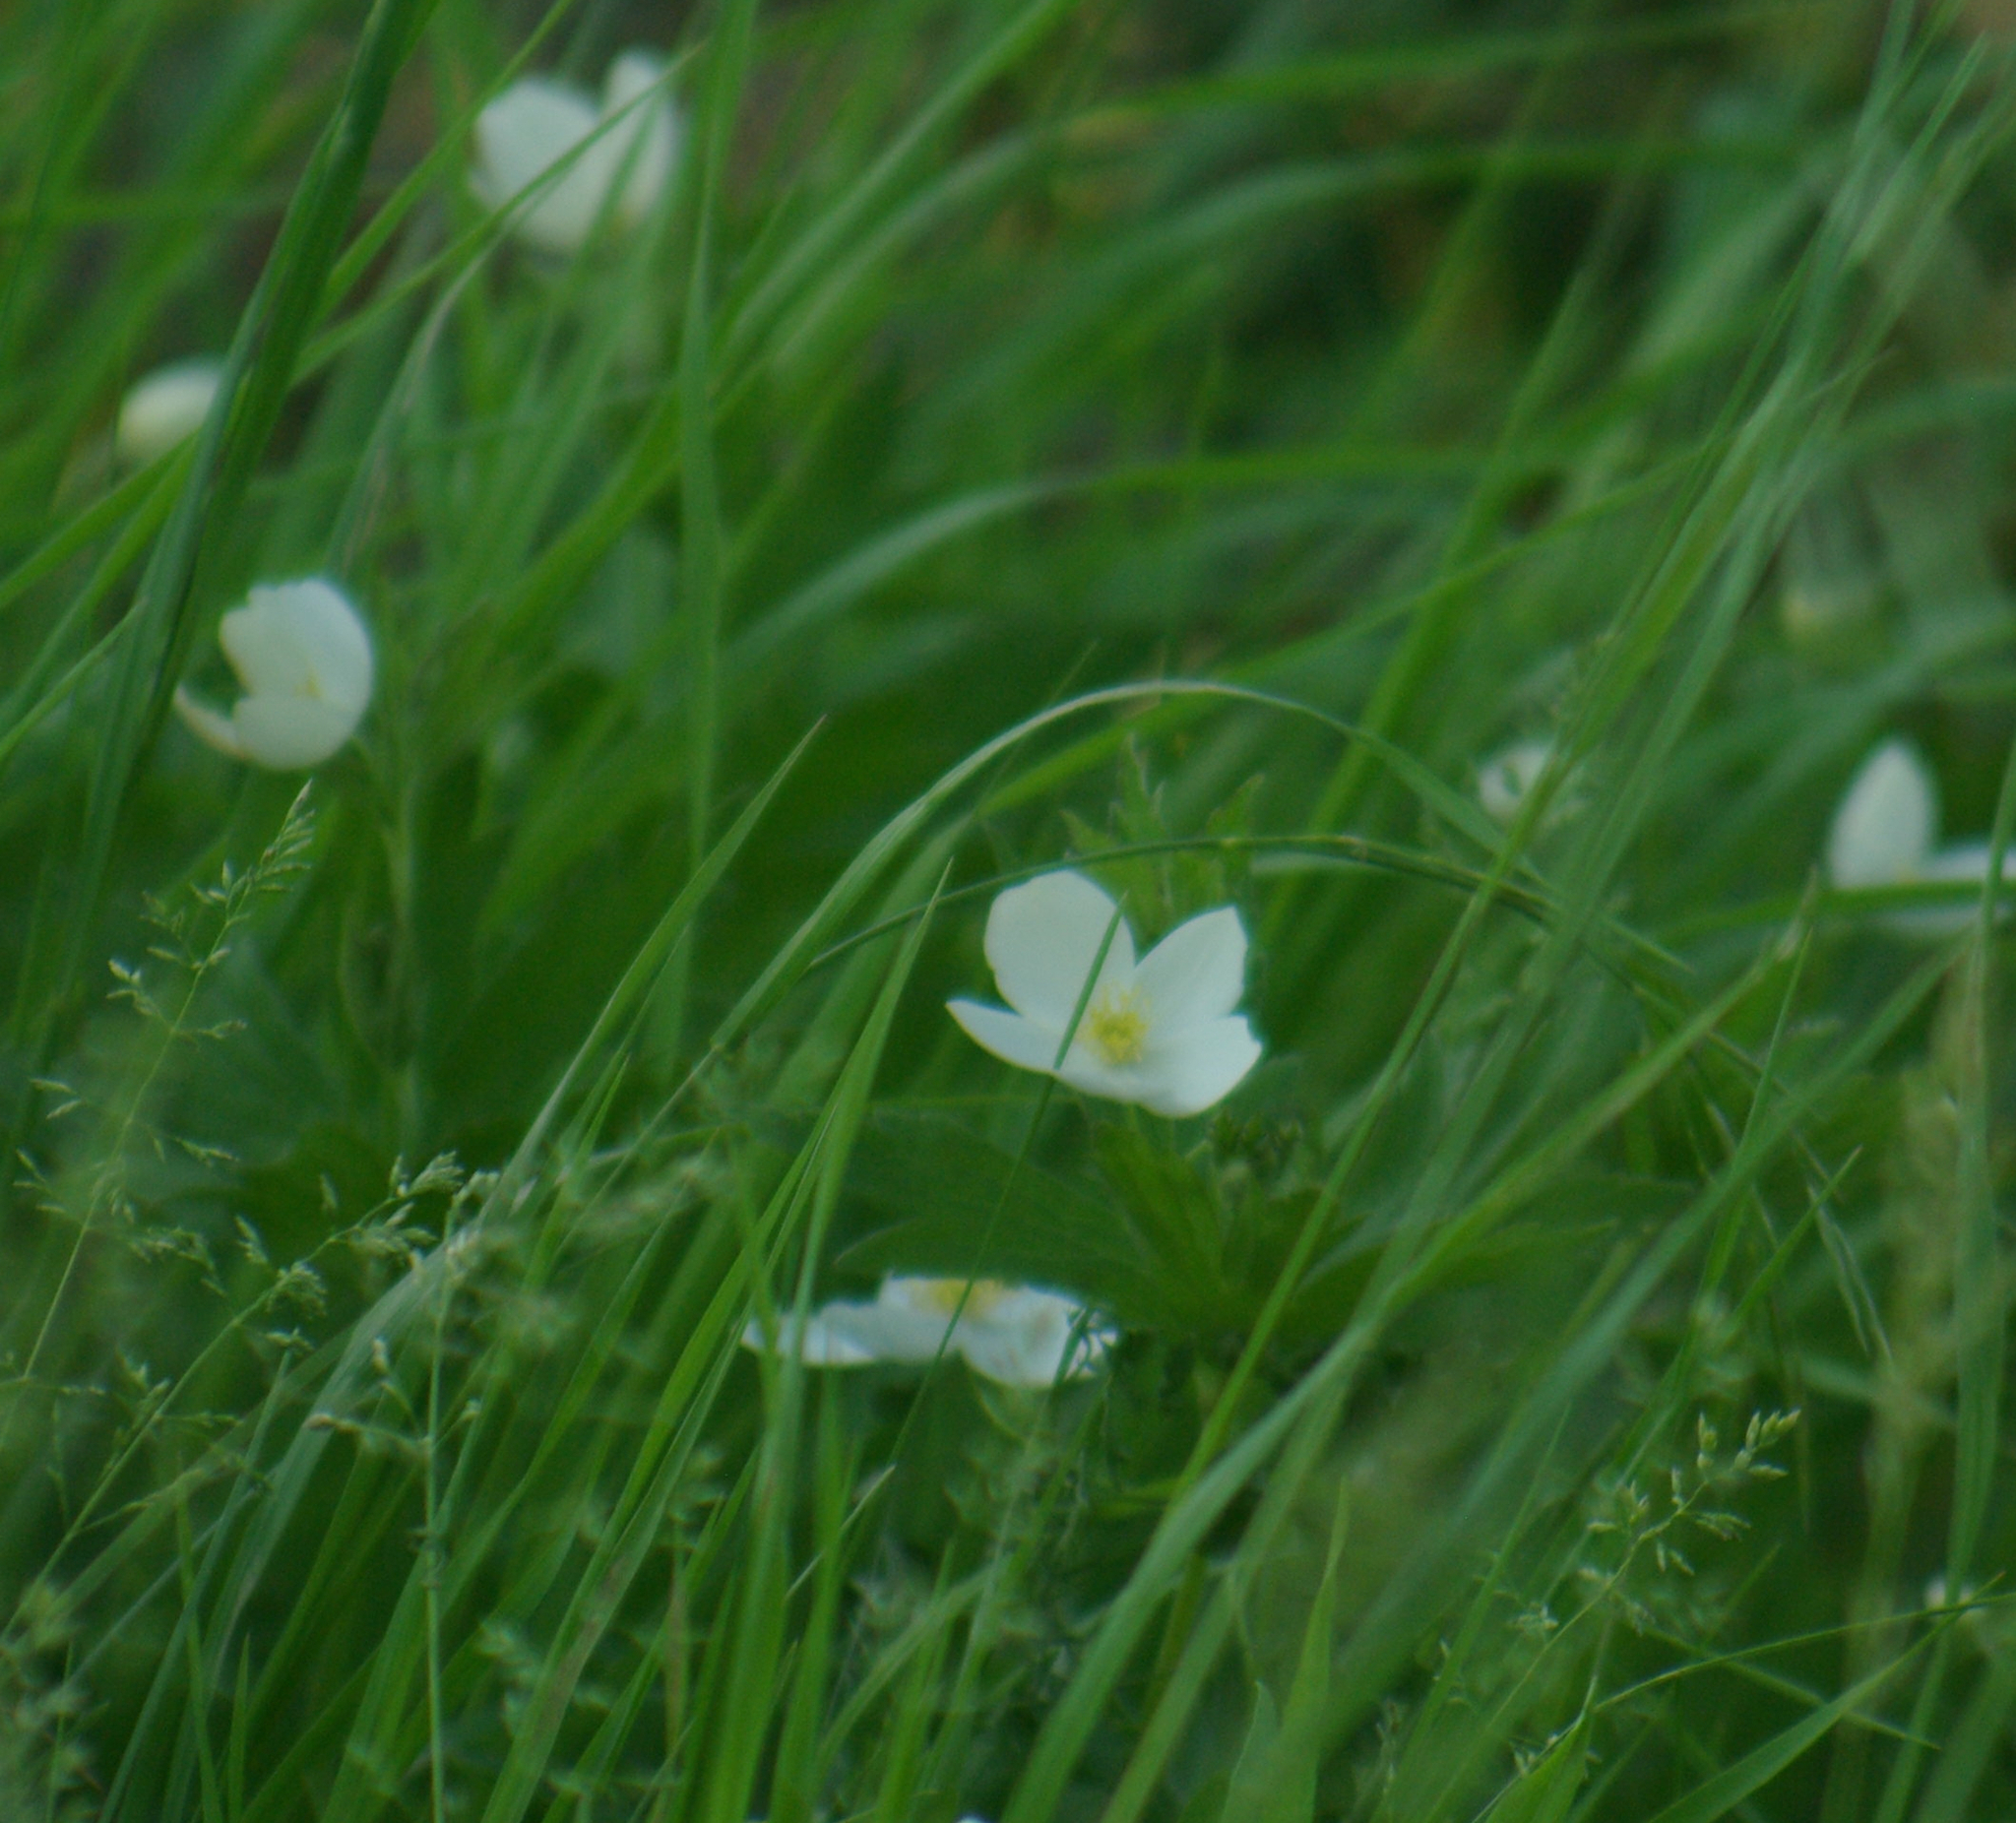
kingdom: Plantae
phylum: Tracheophyta
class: Magnoliopsida
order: Ranunculales
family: Ranunculaceae
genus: Anemonastrum
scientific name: Anemonastrum canadense
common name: Canada anemone
